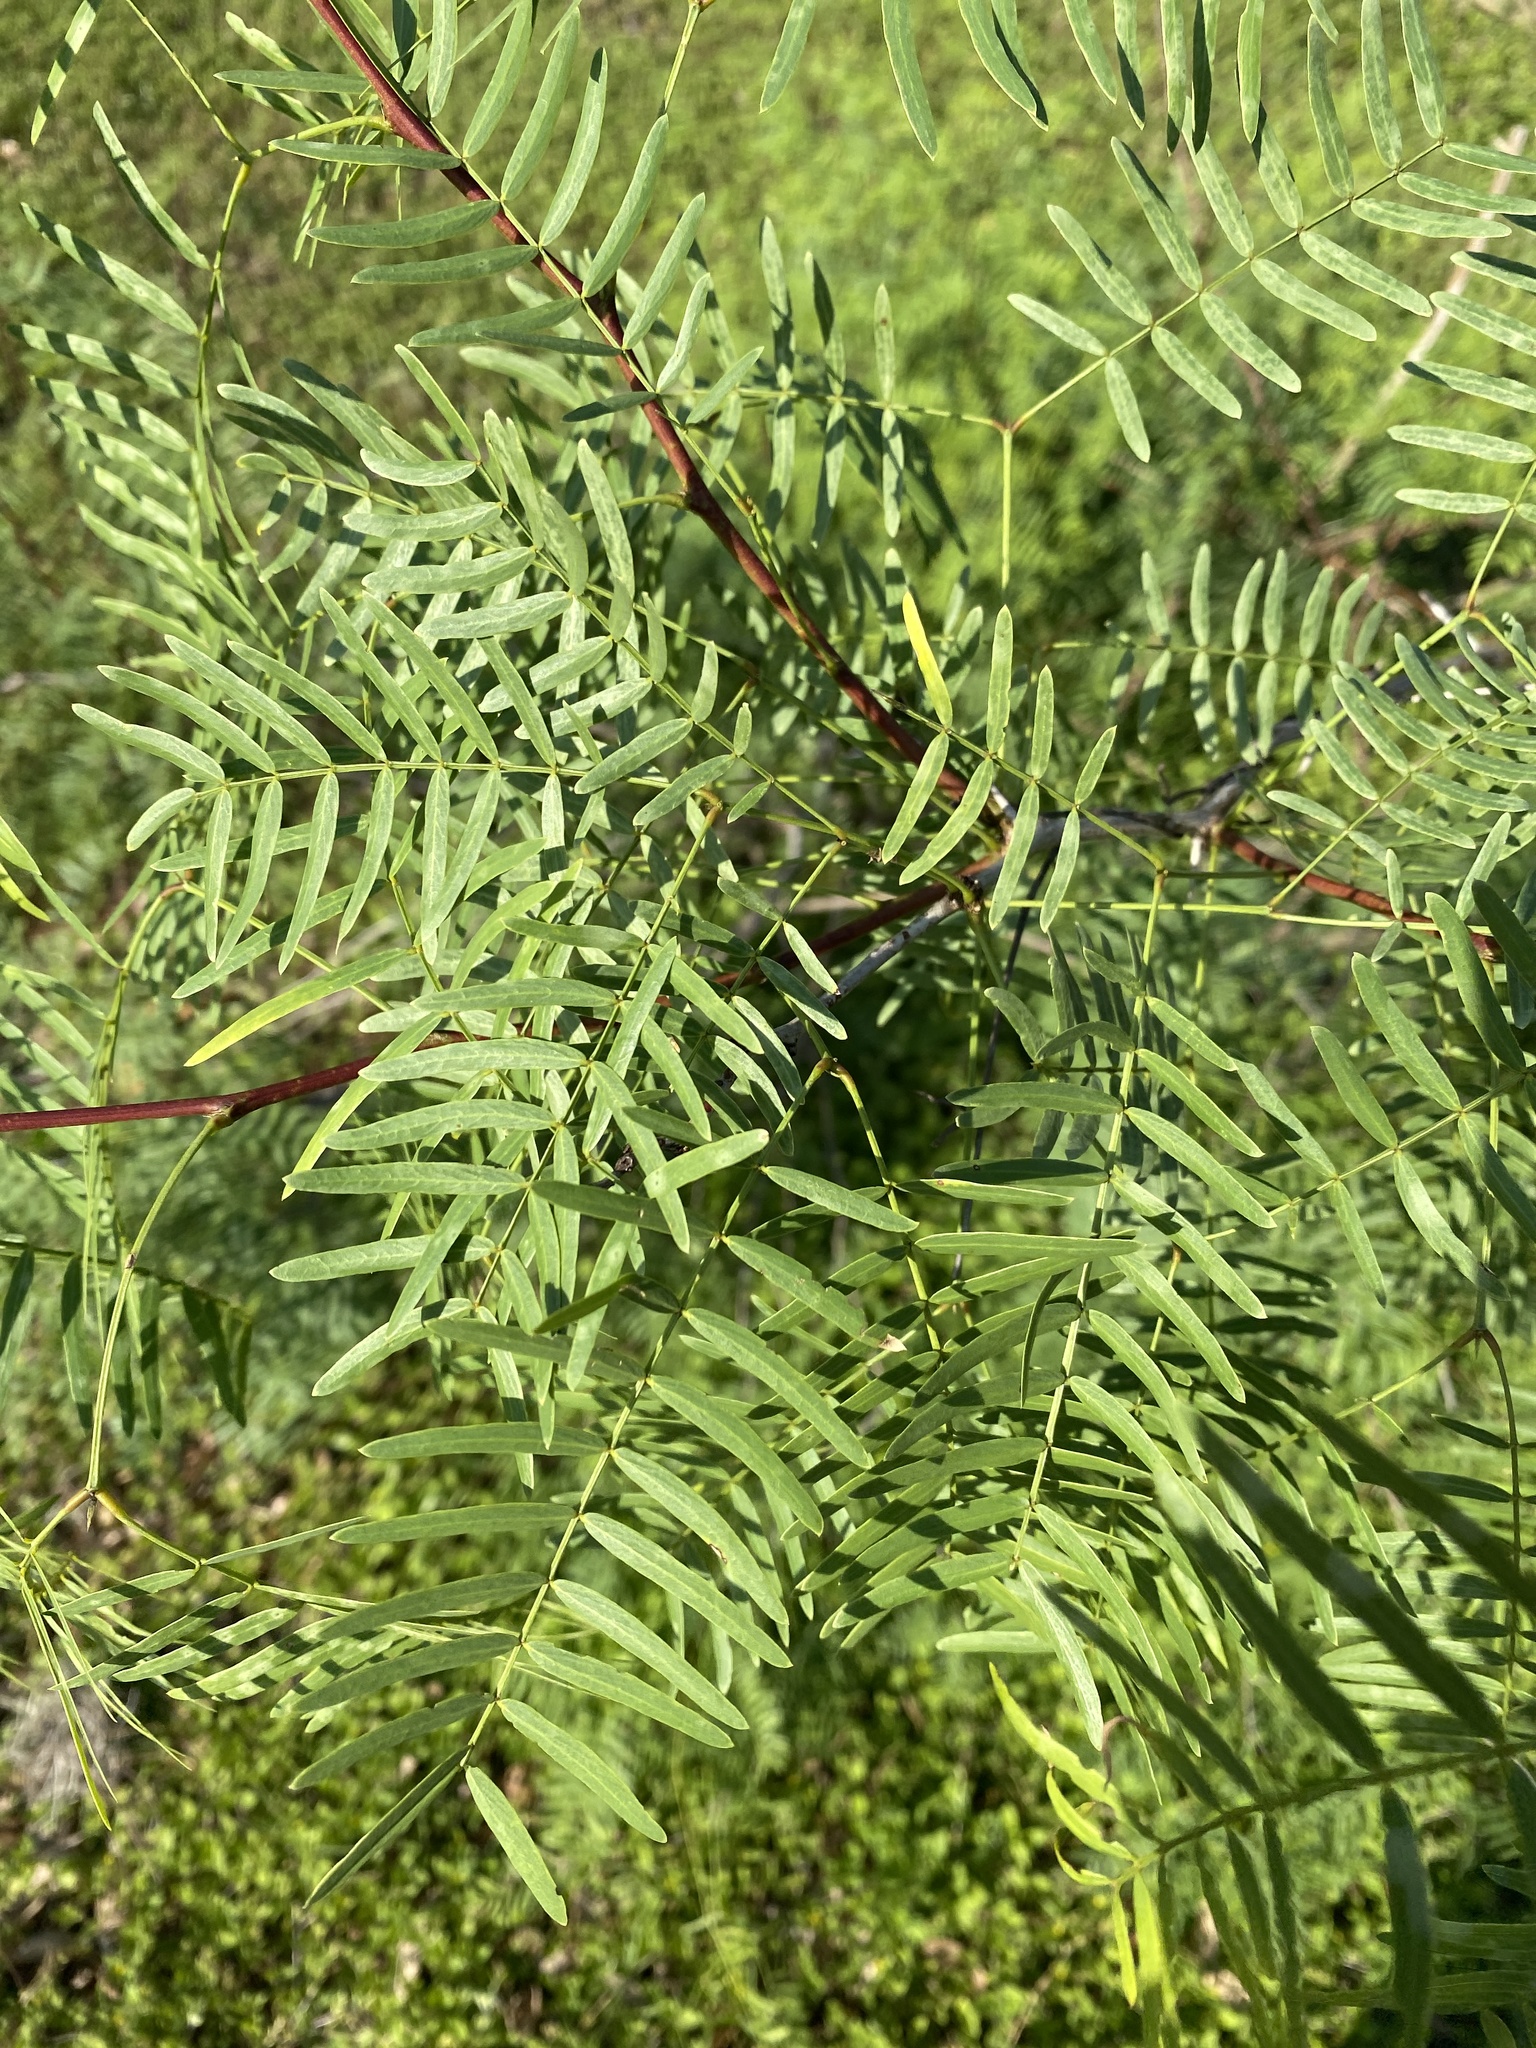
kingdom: Plantae
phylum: Tracheophyta
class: Magnoliopsida
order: Fabales
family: Fabaceae
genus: Prosopis
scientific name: Prosopis glandulosa
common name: Honey mesquite
